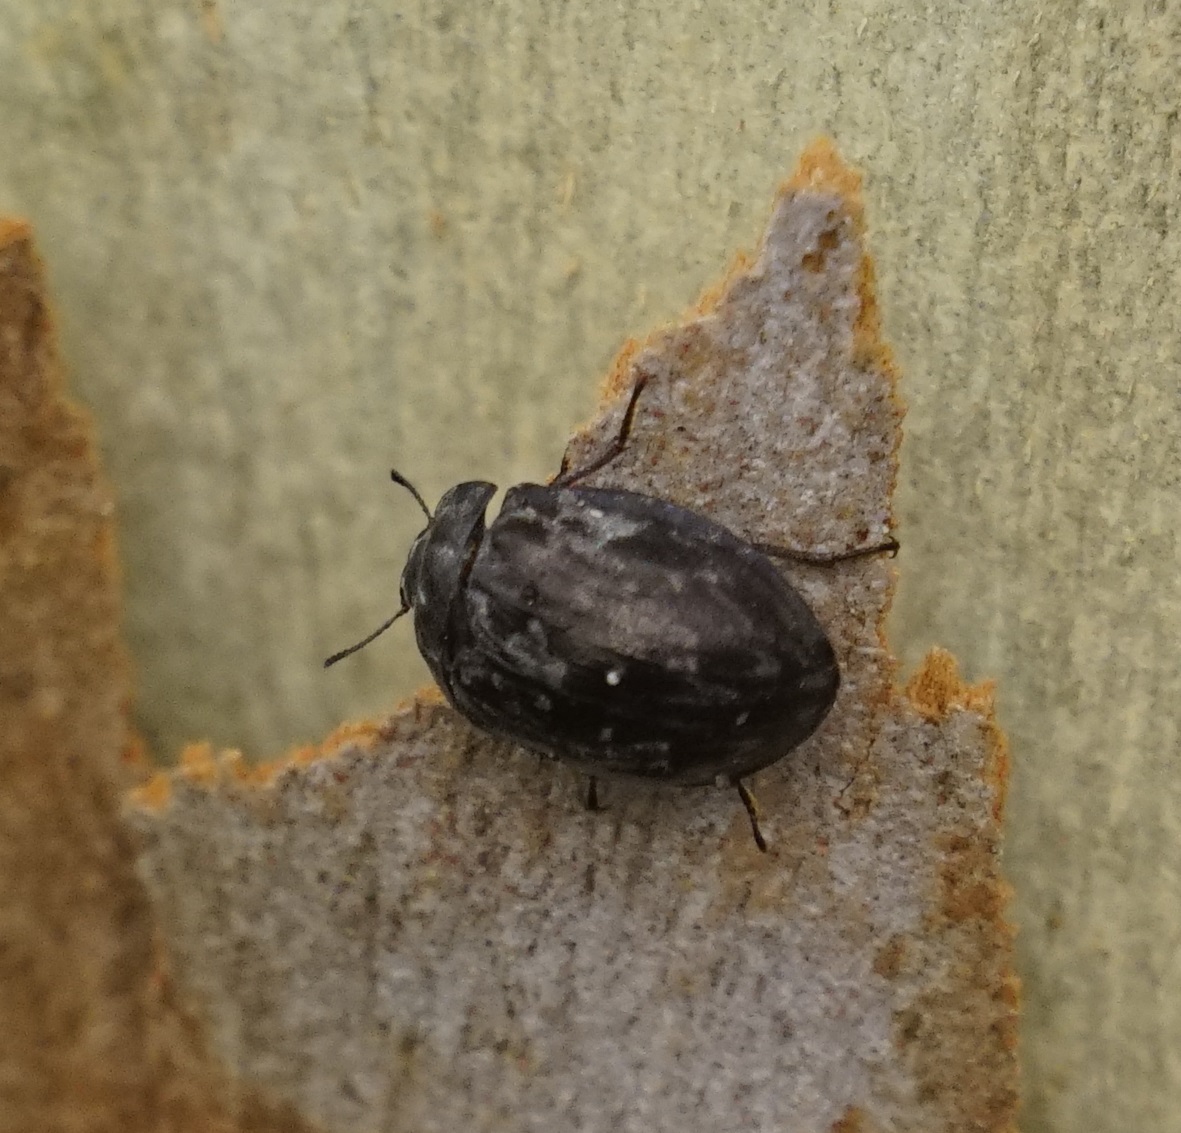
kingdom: Animalia
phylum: Arthropoda
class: Insecta
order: Coleoptera
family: Tenebrionidae
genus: Ospidus
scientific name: Ospidus
